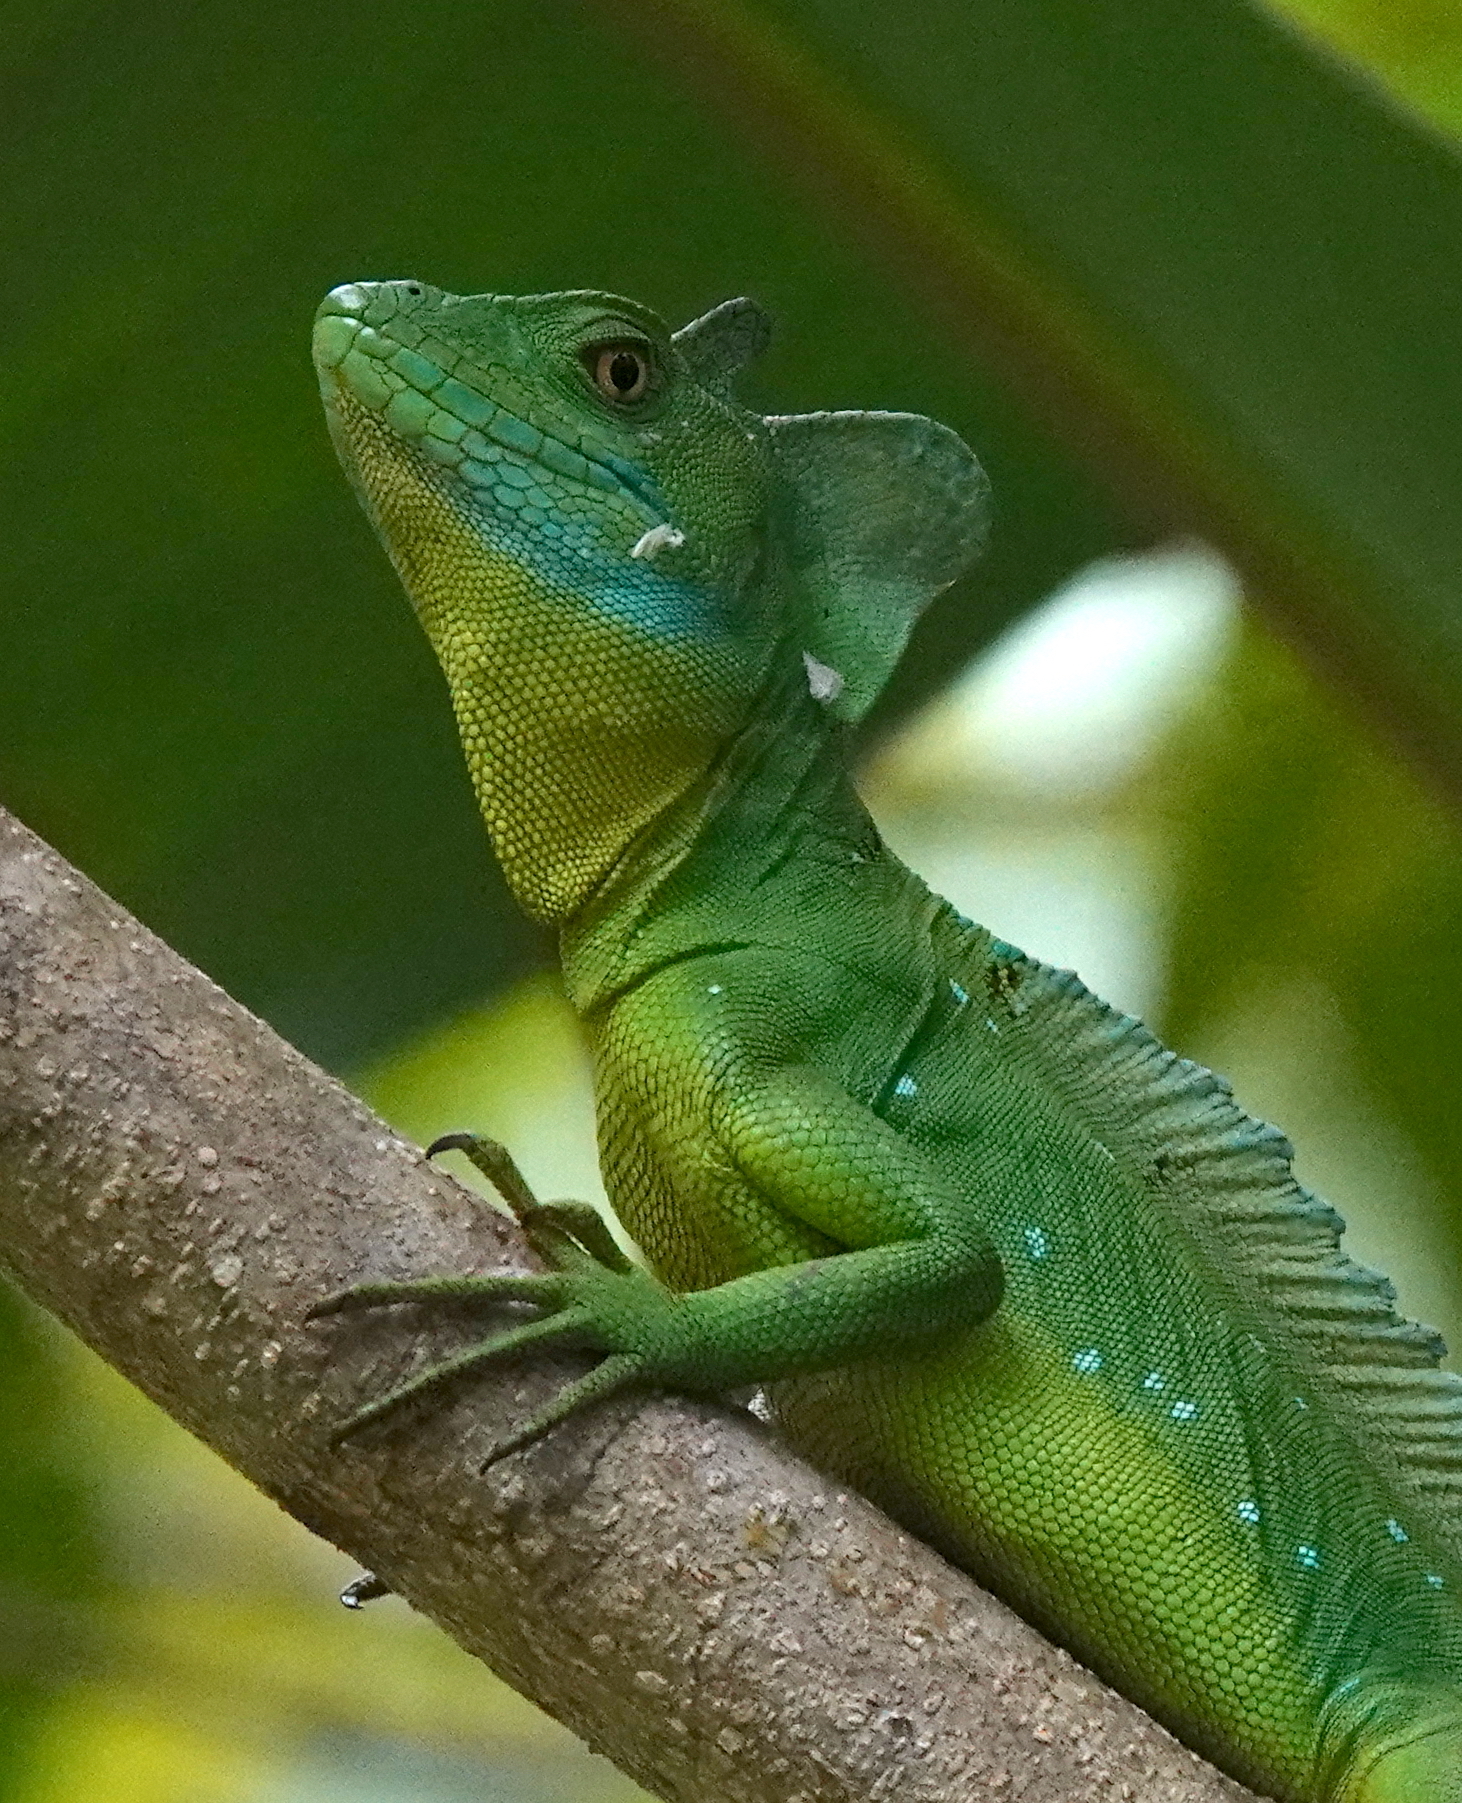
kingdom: Animalia
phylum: Chordata
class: Squamata
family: Corytophanidae
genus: Basiliscus
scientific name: Basiliscus plumifrons
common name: Green basilisk
